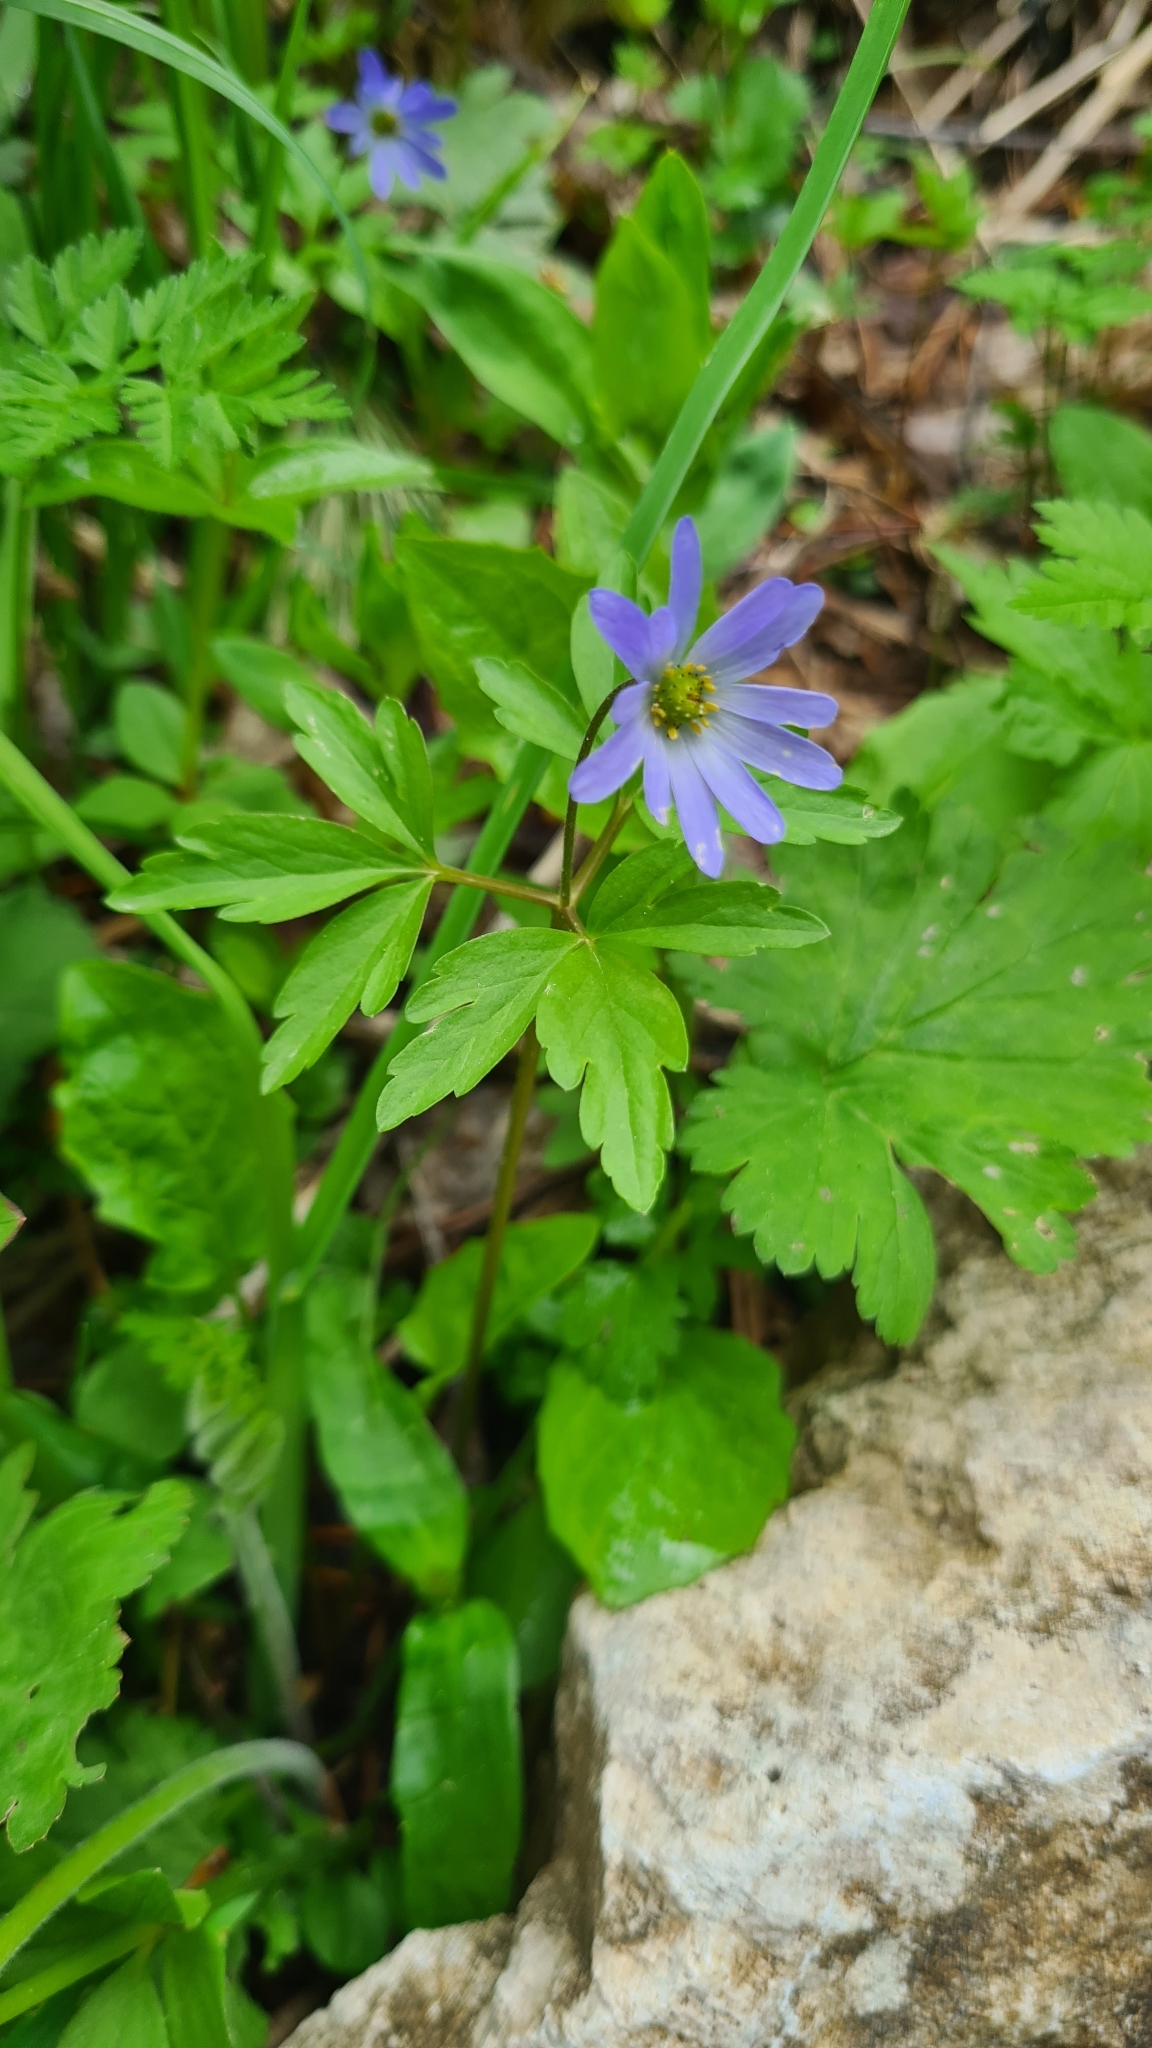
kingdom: Plantae
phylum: Tracheophyta
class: Magnoliopsida
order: Ranunculales
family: Ranunculaceae
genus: Anemone
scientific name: Anemone caucasica
